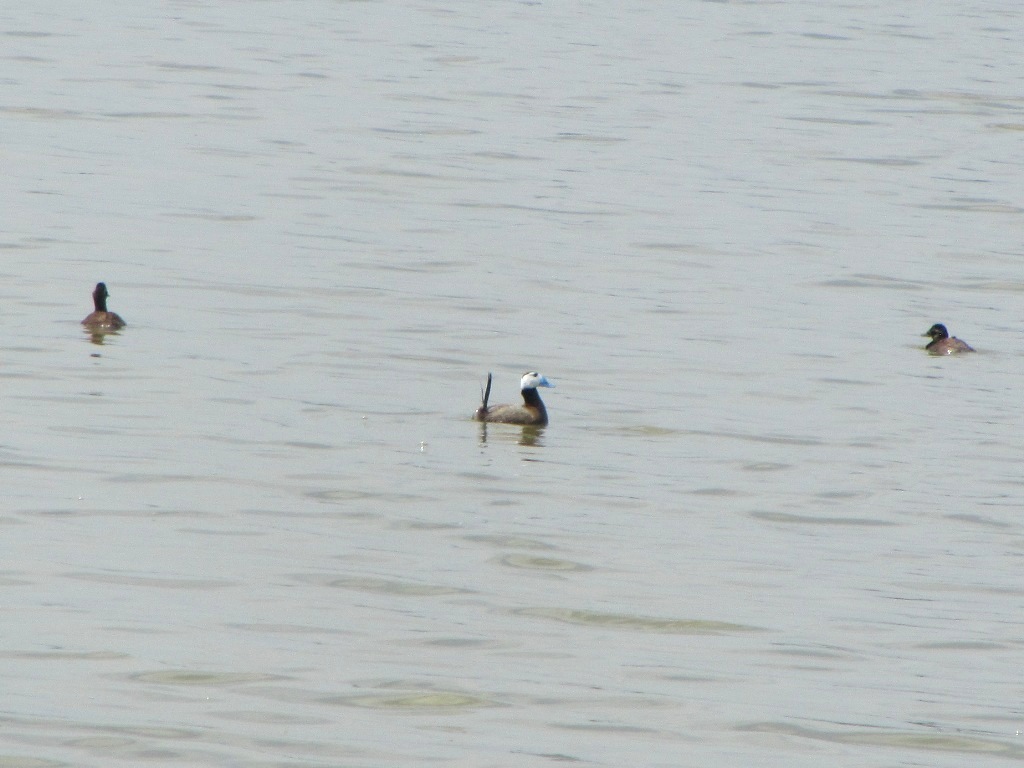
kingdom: Animalia
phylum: Chordata
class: Aves
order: Anseriformes
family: Anatidae
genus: Oxyura
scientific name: Oxyura leucocephala
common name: White-headed duck
